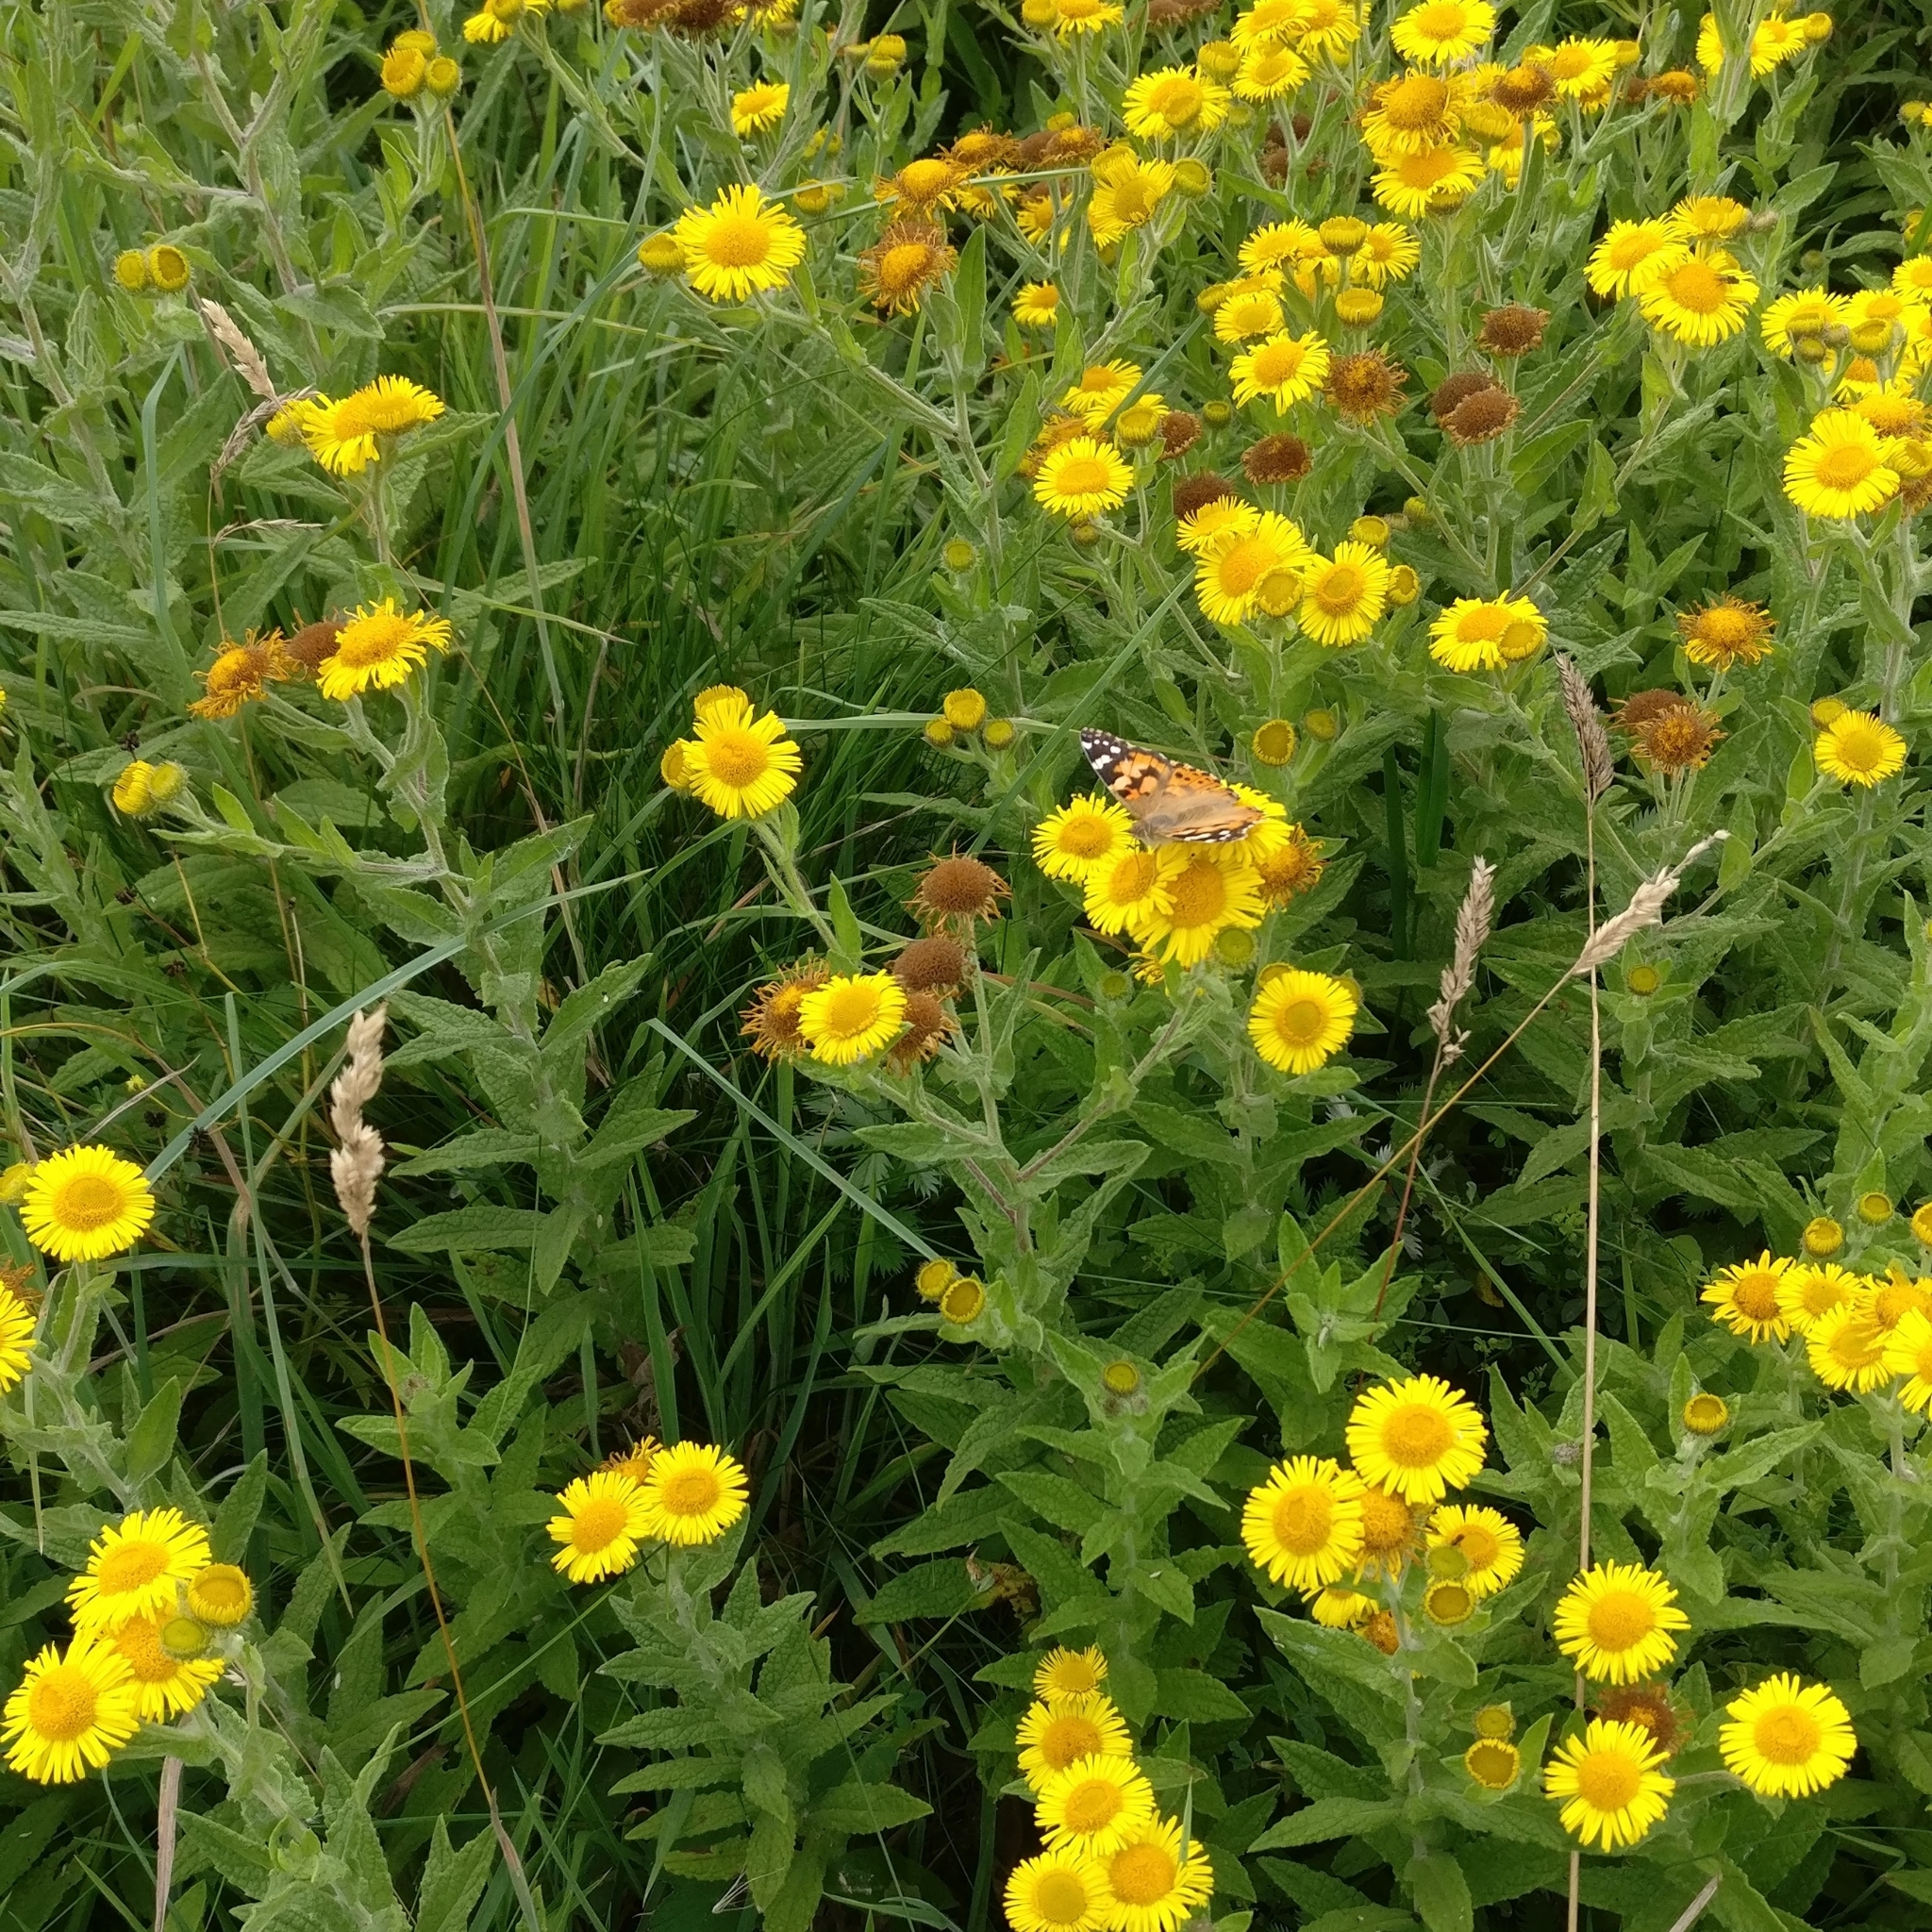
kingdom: Animalia
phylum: Arthropoda
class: Insecta
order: Lepidoptera
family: Nymphalidae
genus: Vanessa
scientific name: Vanessa cardui
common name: Painted lady
